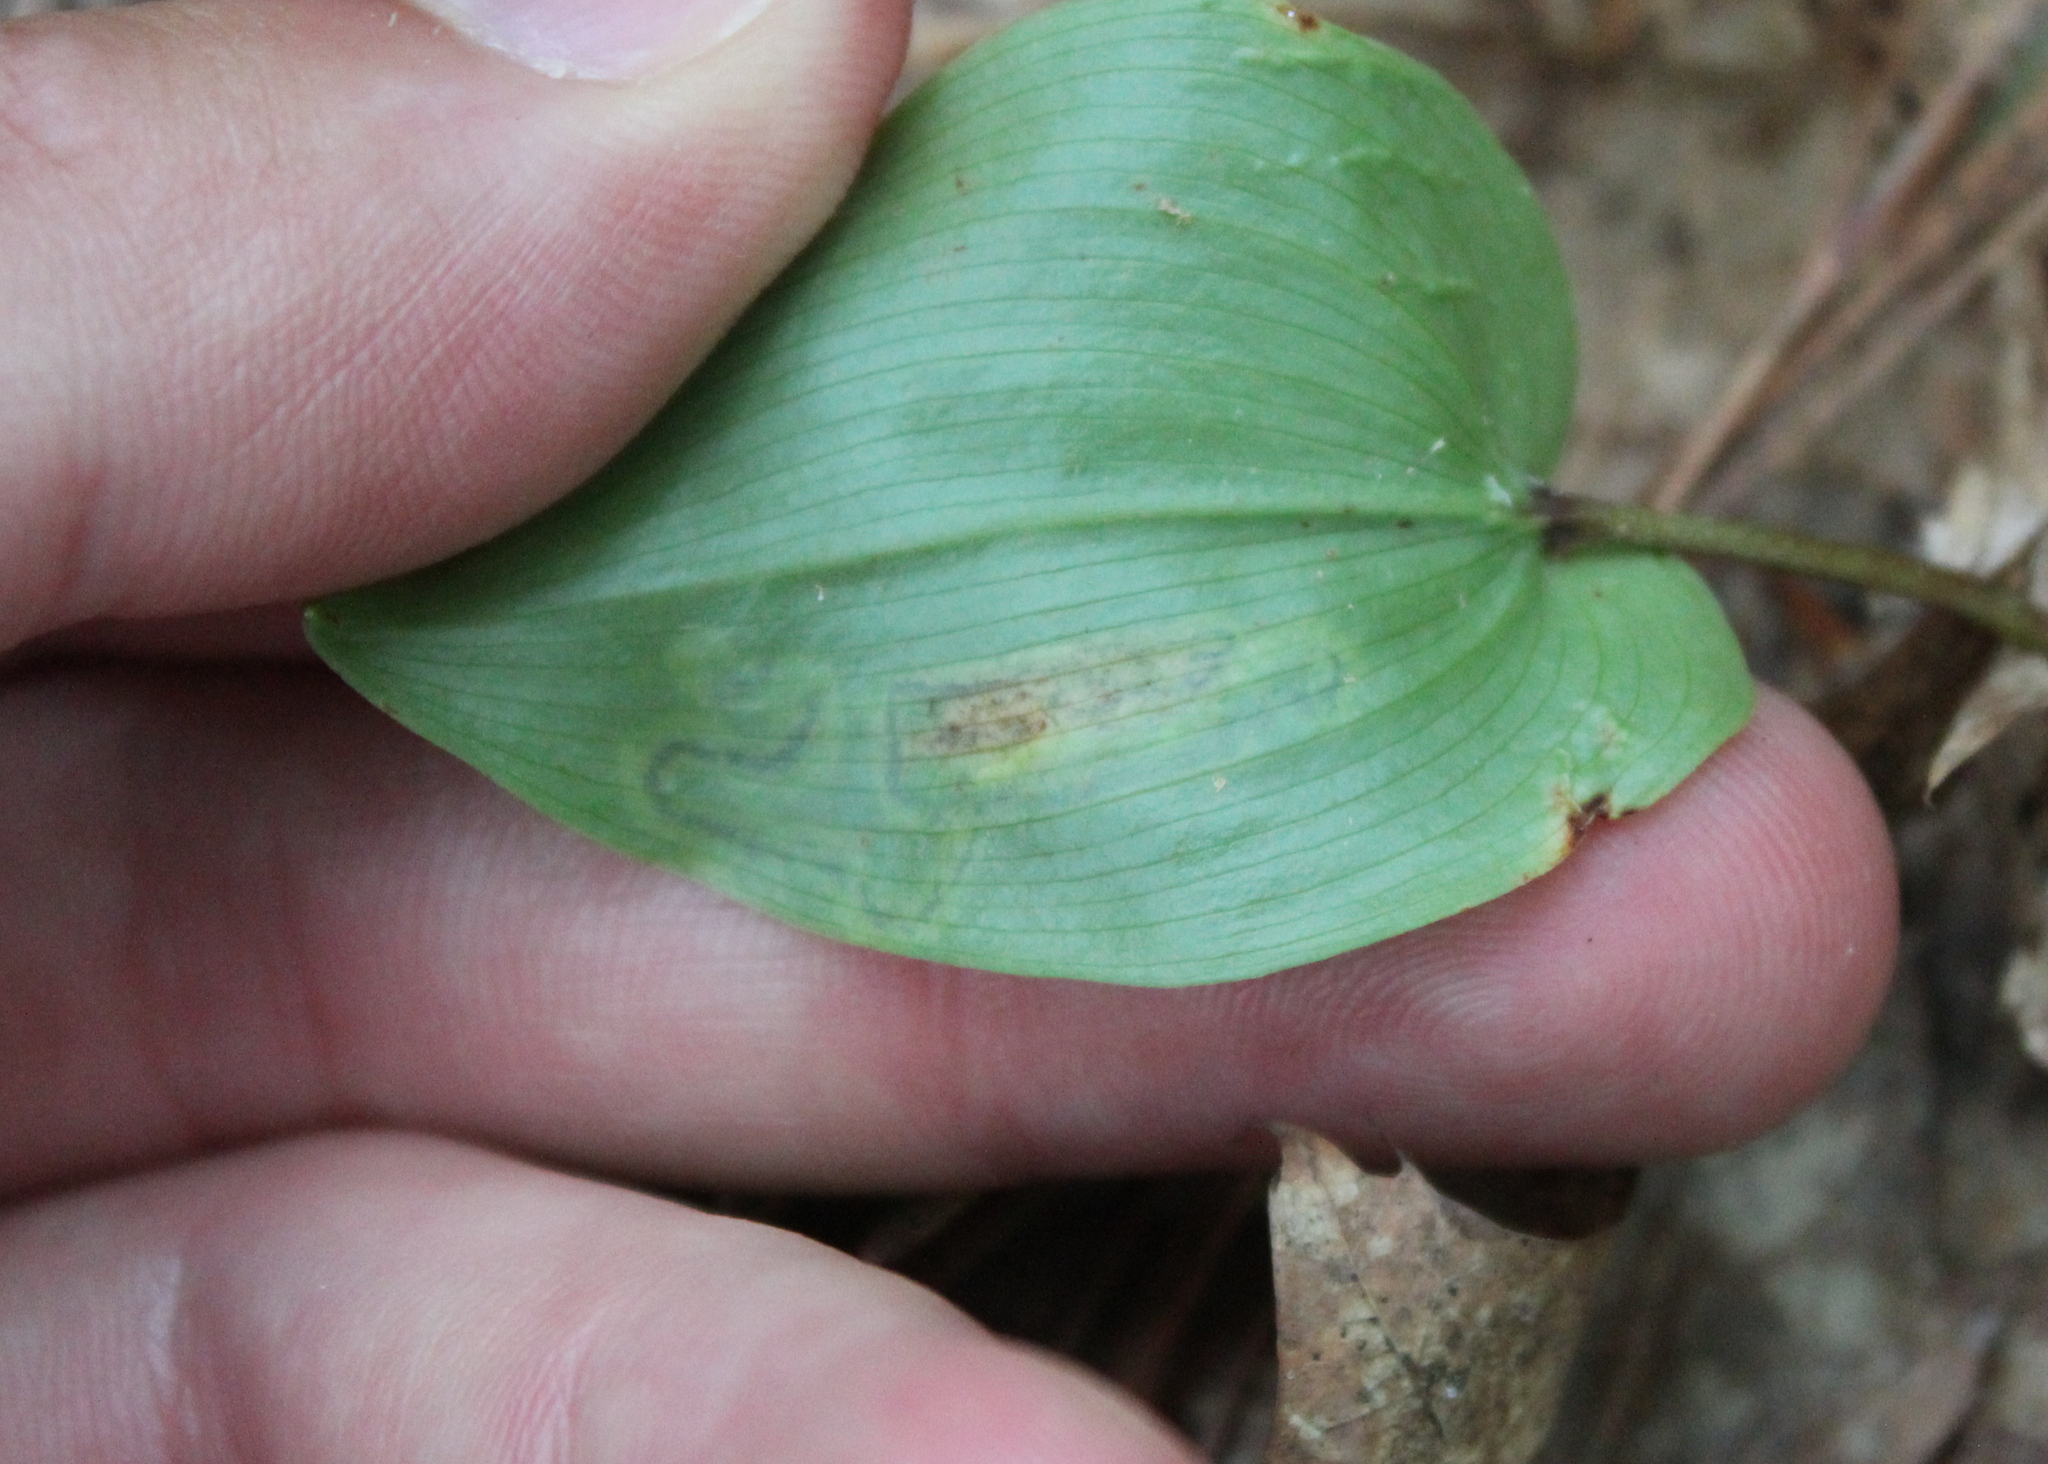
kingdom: Animalia
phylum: Arthropoda
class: Insecta
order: Diptera
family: Agromyzidae
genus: Liriomyza
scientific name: Liriomyza smilacinae
